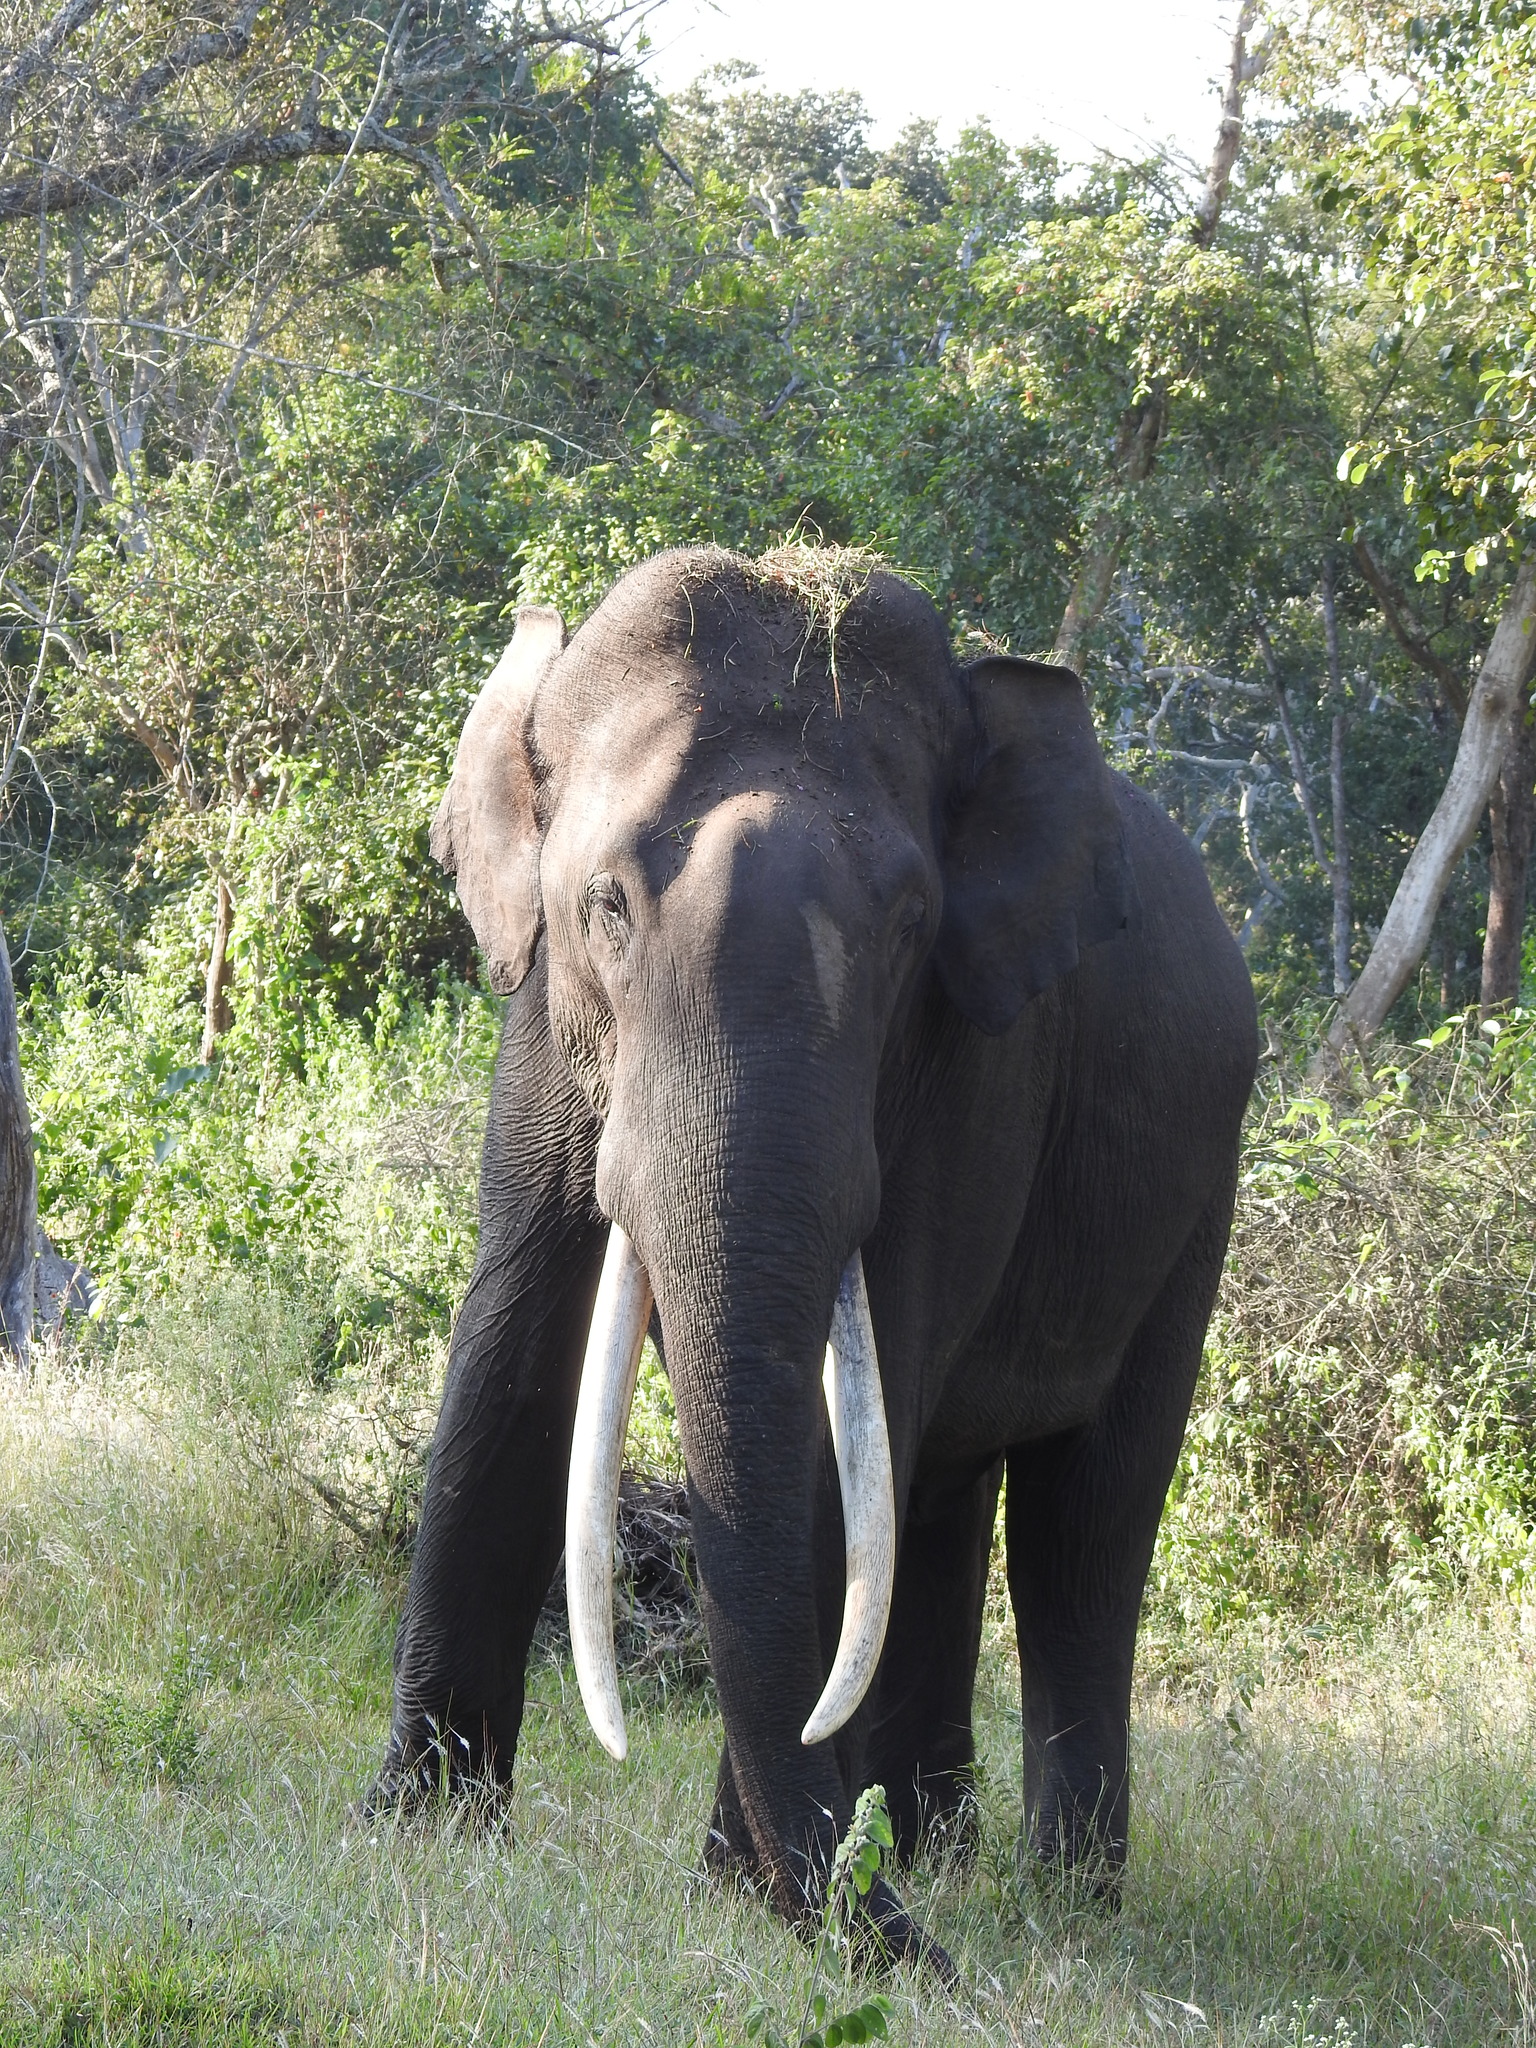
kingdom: Animalia
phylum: Chordata
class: Mammalia
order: Proboscidea
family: Elephantidae
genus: Elephas
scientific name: Elephas maximus
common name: Asian elephant
